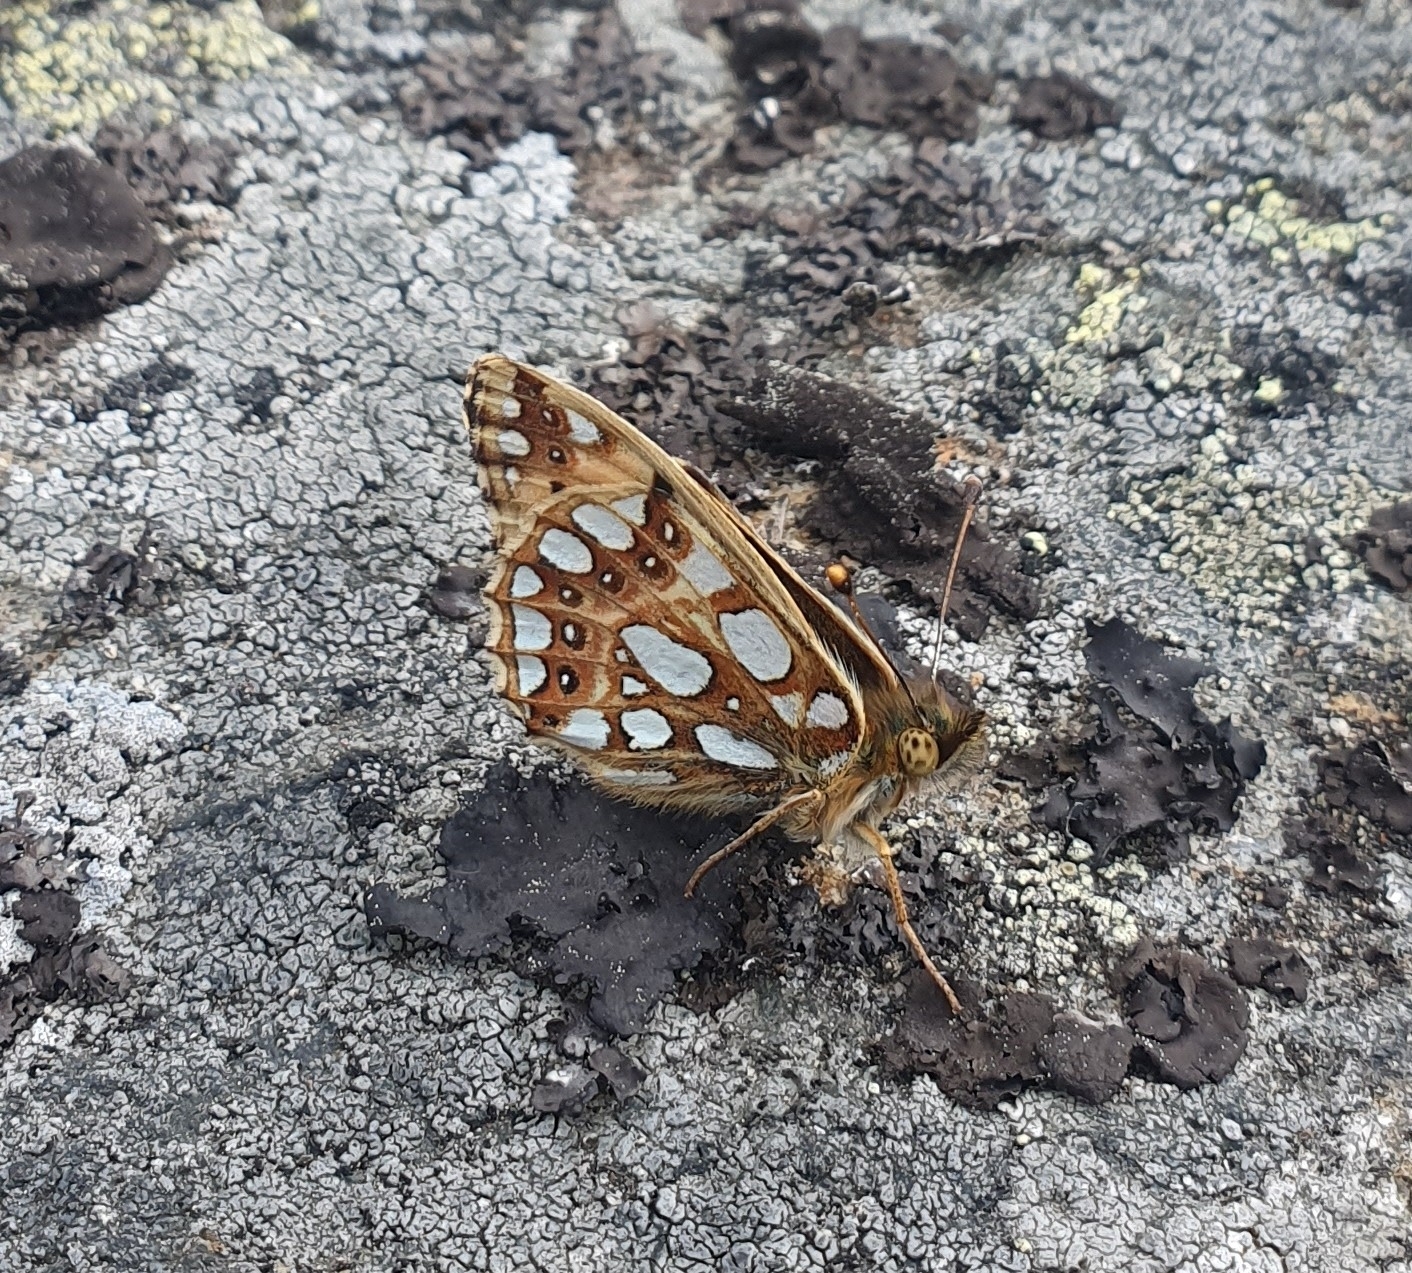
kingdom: Animalia
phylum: Arthropoda
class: Insecta
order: Lepidoptera
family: Nymphalidae
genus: Issoria
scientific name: Issoria lathonia
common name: Queen of spain fritillary
